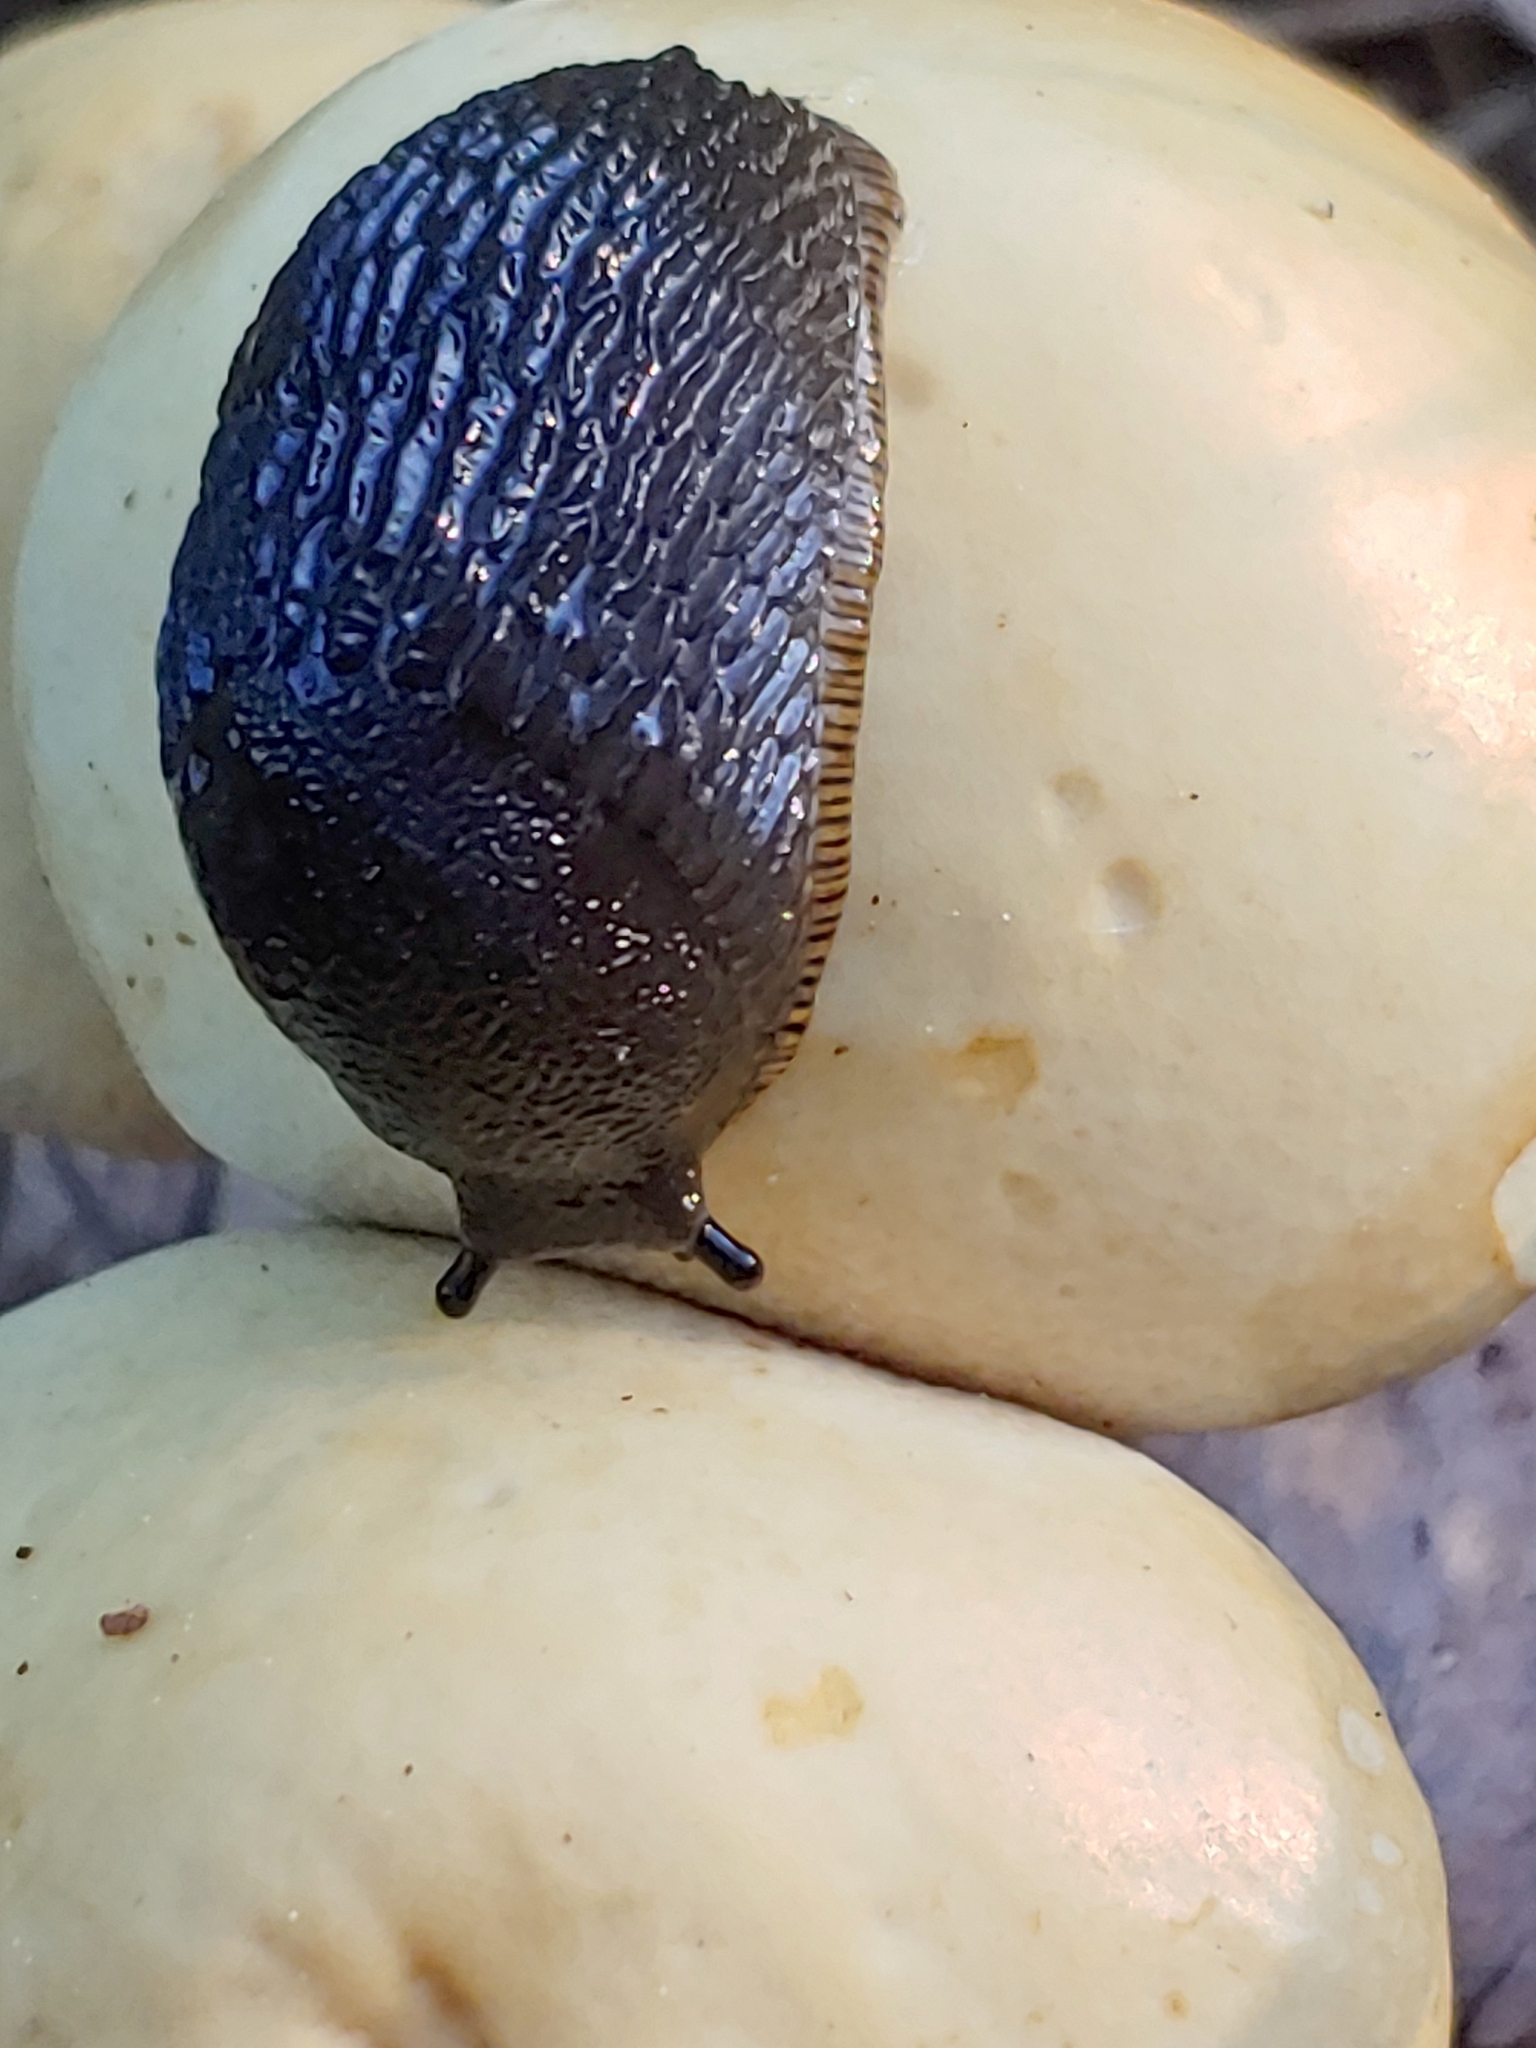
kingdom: Animalia
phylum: Mollusca
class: Gastropoda
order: Stylommatophora
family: Arionidae
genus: Arion
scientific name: Arion rufus
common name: Chocolate arion
